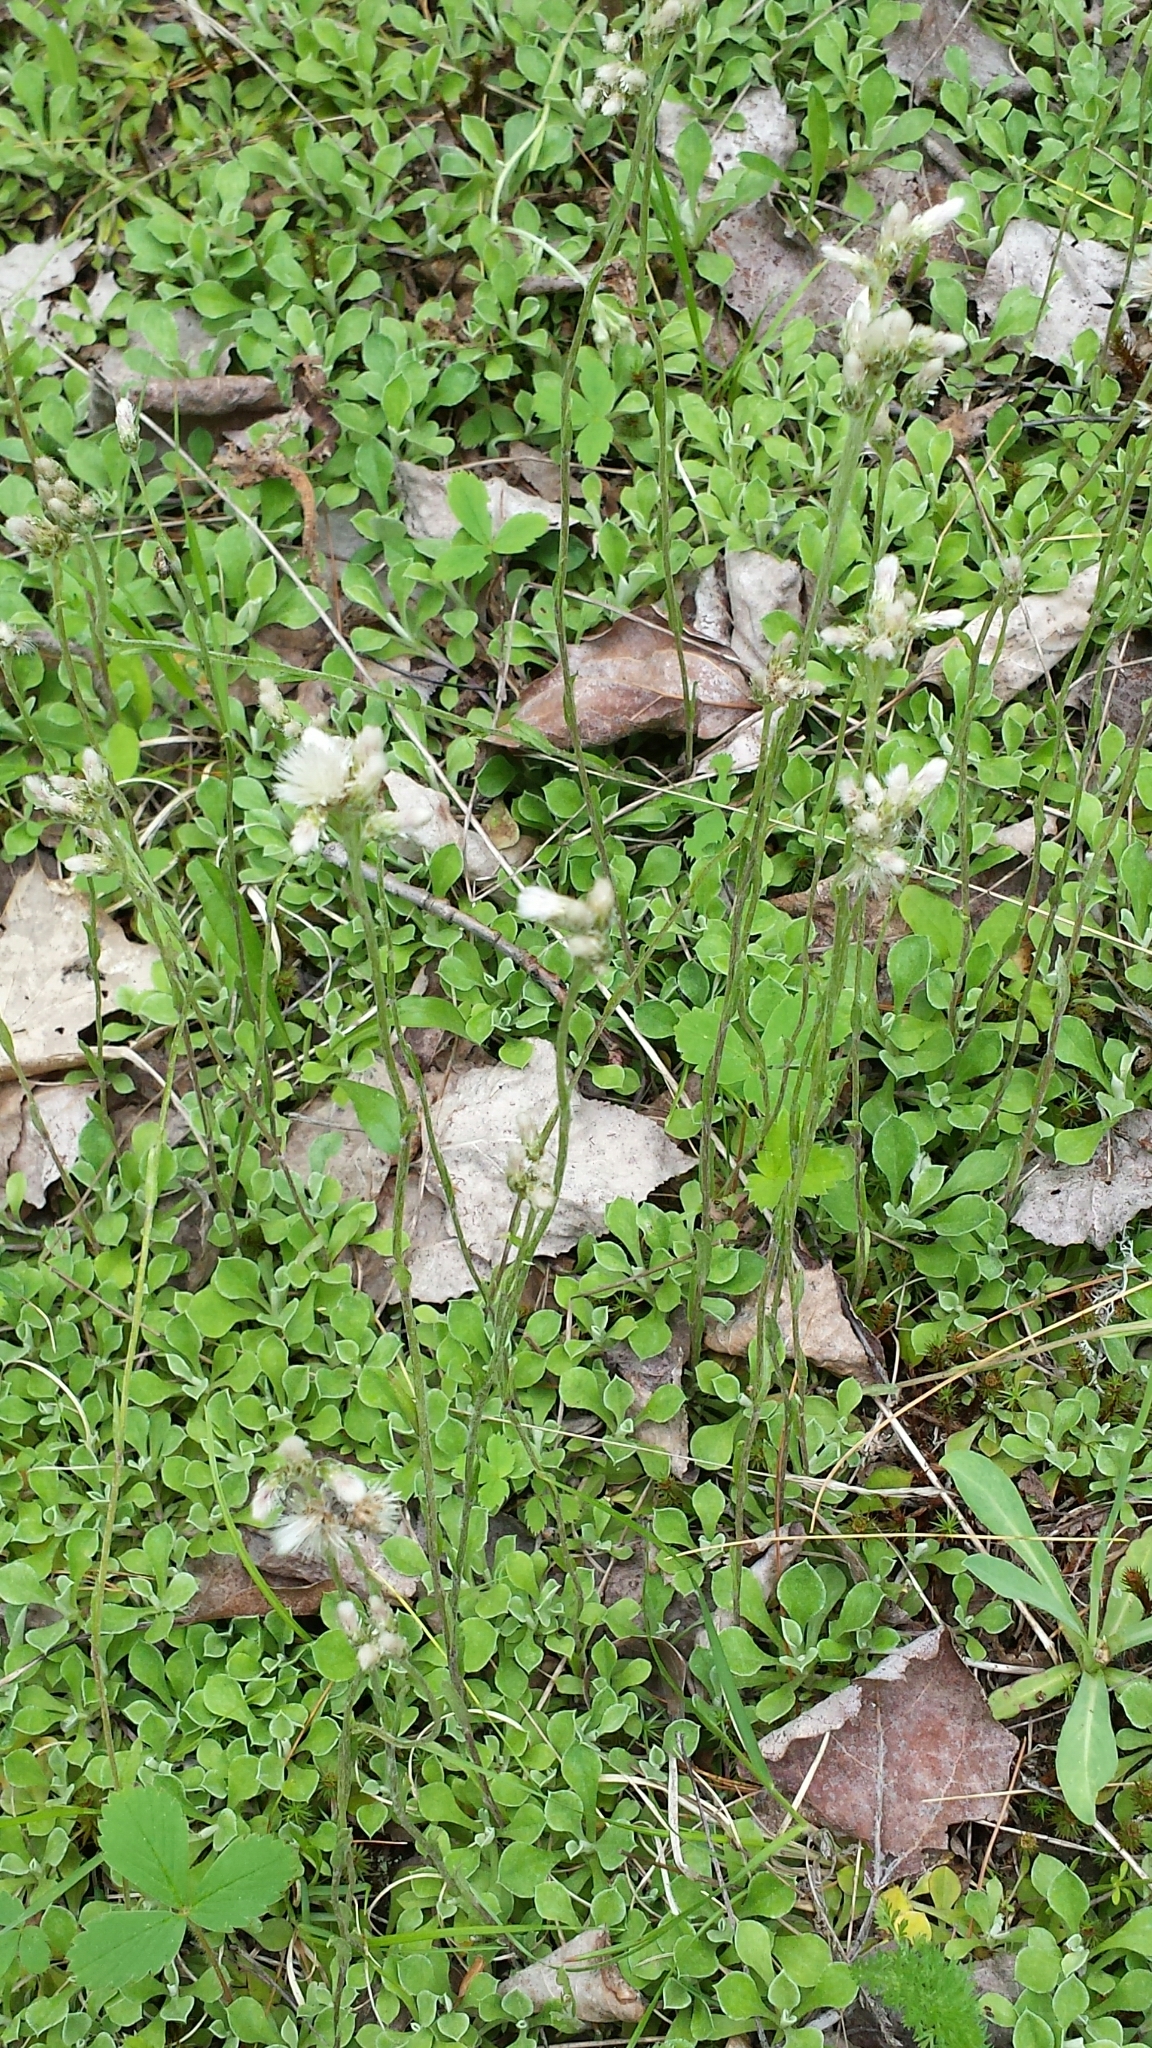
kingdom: Plantae
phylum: Tracheophyta
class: Magnoliopsida
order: Asterales
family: Asteraceae
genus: Antennaria
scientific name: Antennaria neglecta
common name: Field pussytoes
